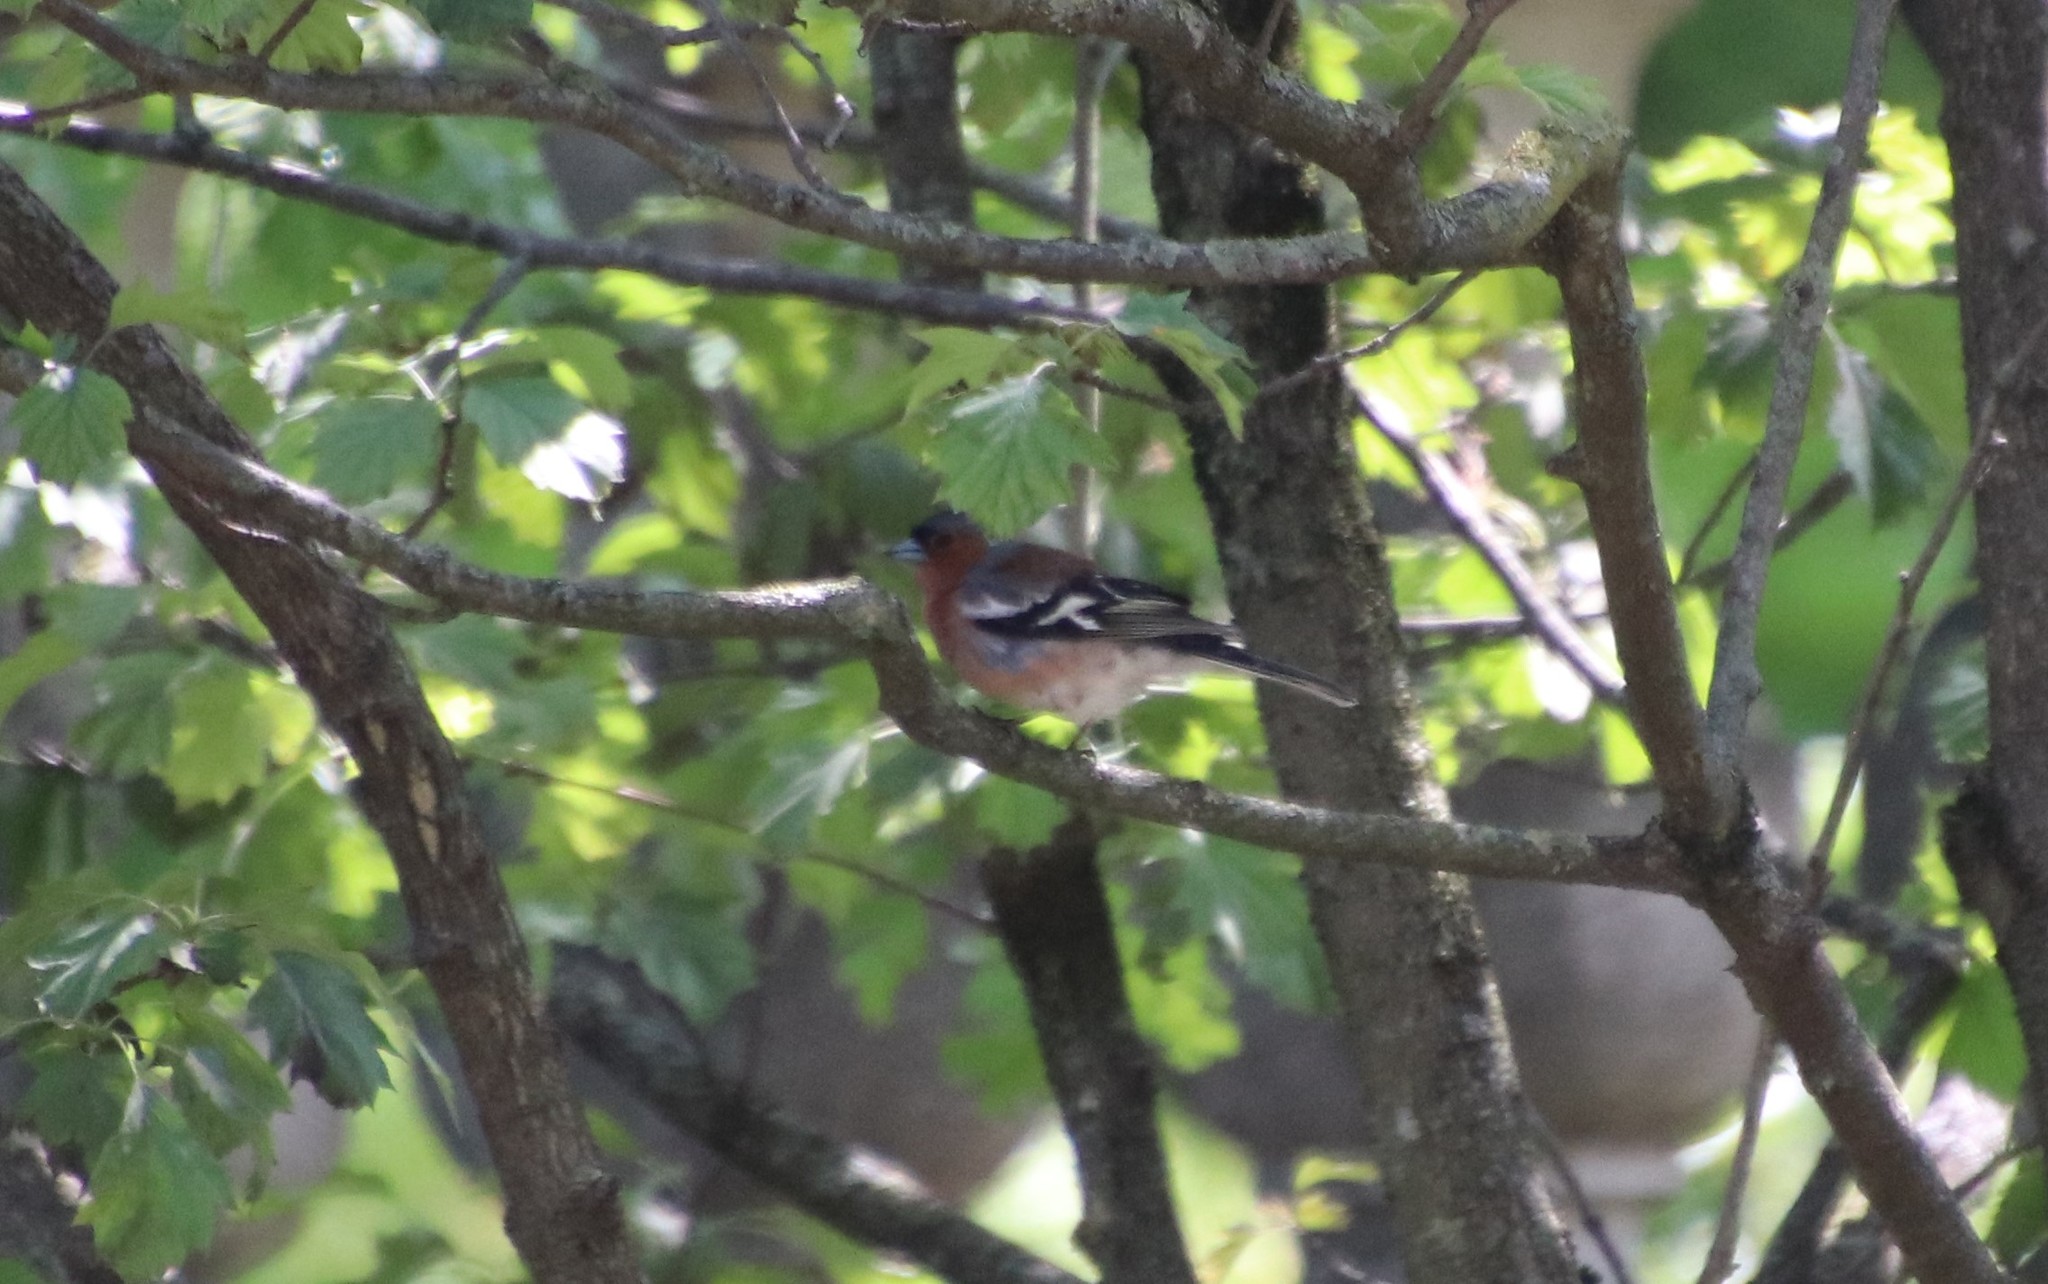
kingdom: Animalia
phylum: Chordata
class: Aves
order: Passeriformes
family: Fringillidae
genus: Fringilla
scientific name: Fringilla coelebs
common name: Common chaffinch
